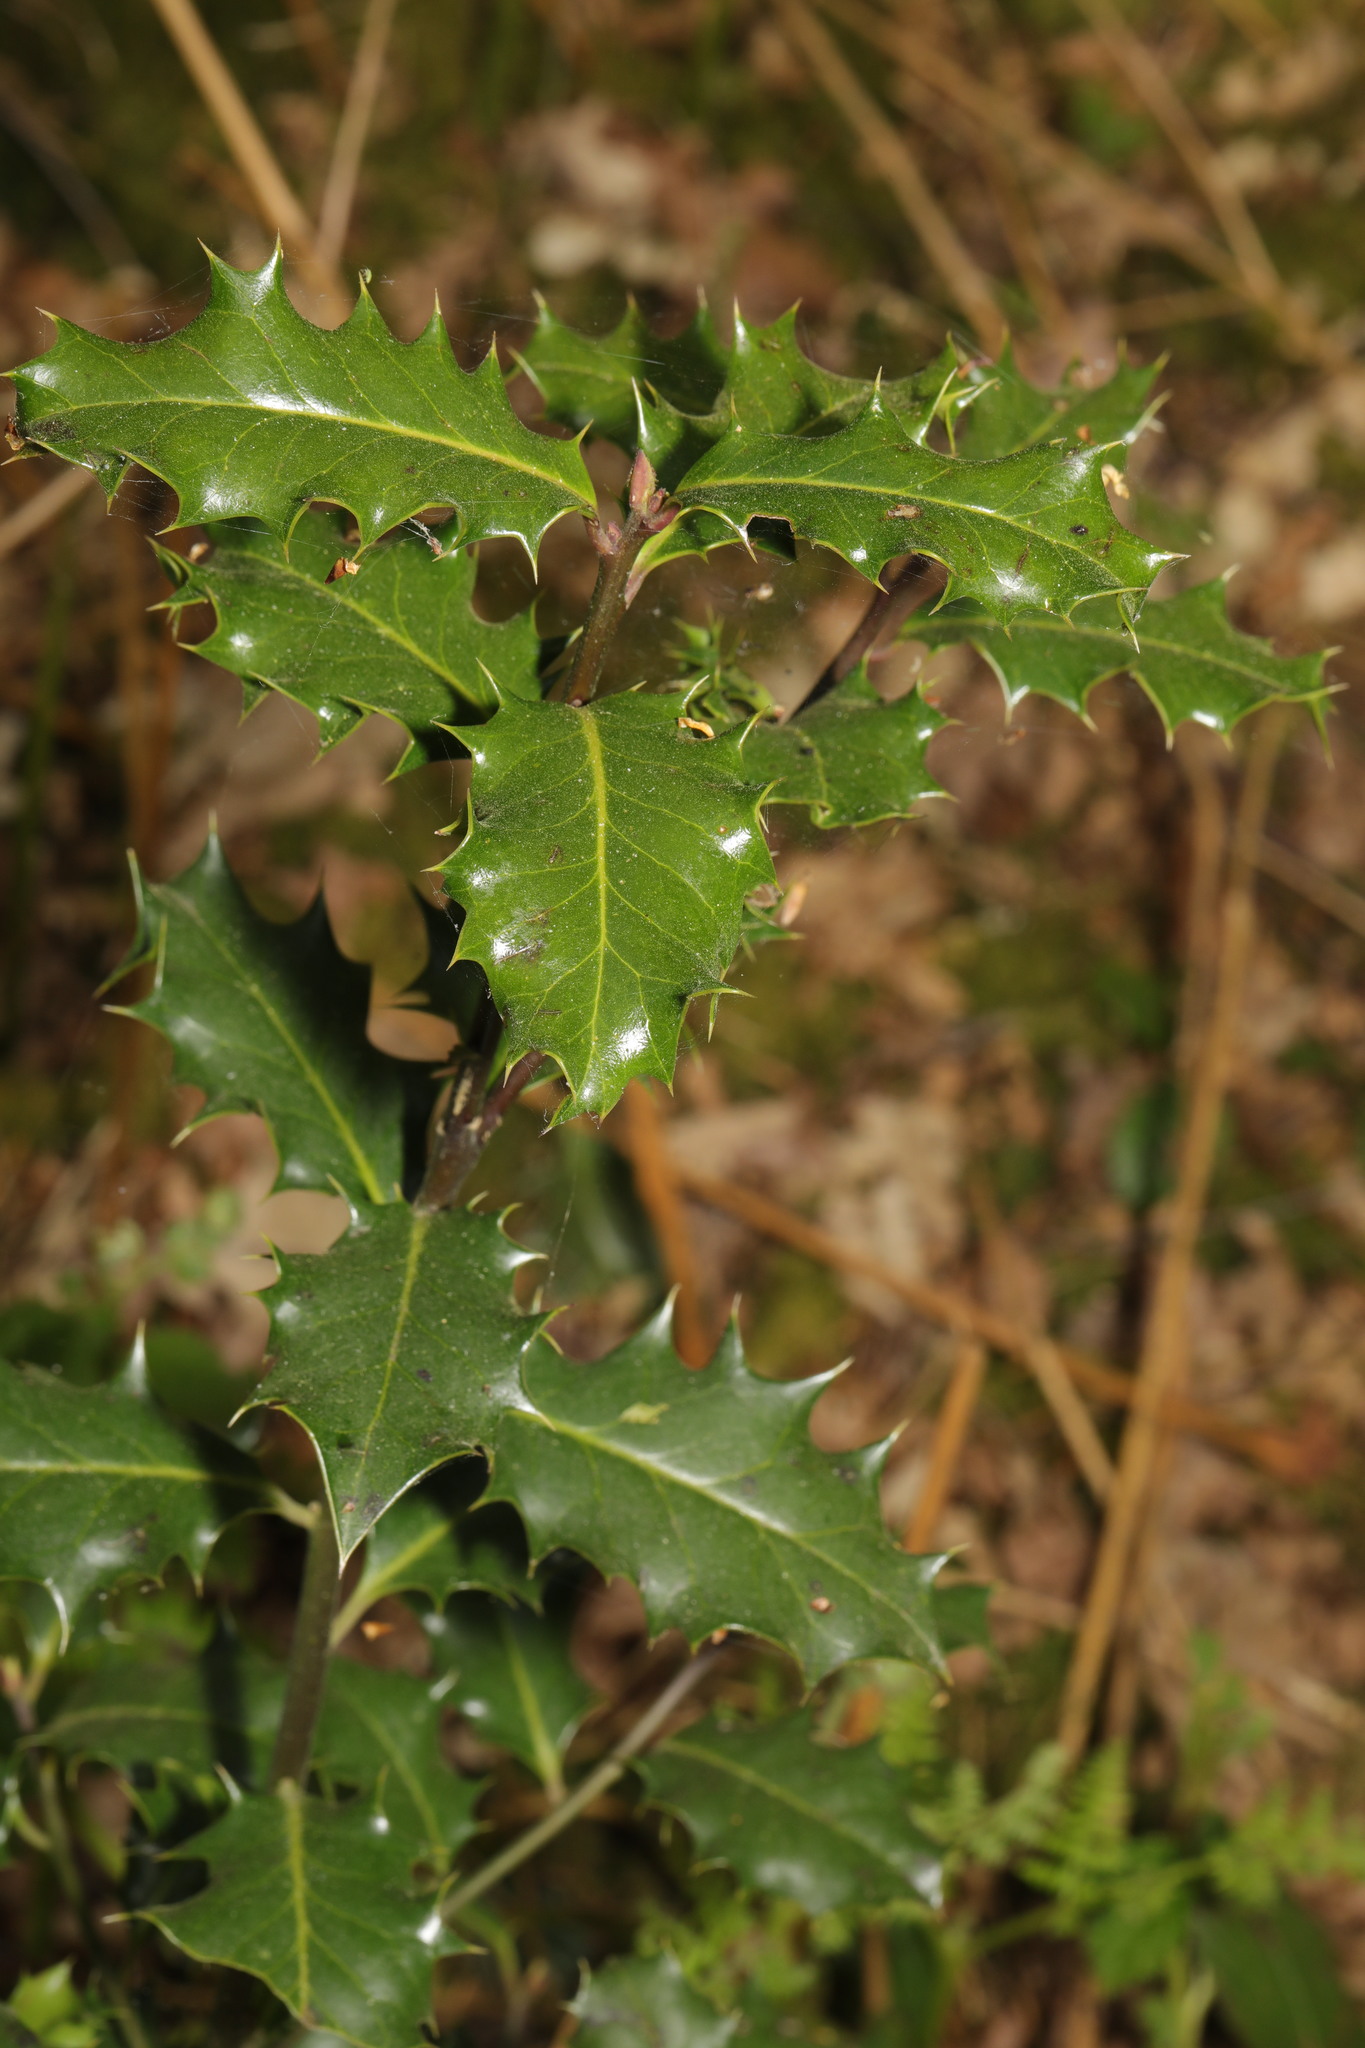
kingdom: Plantae
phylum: Tracheophyta
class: Magnoliopsida
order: Aquifoliales
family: Aquifoliaceae
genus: Ilex
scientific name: Ilex aquifolium
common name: English holly
